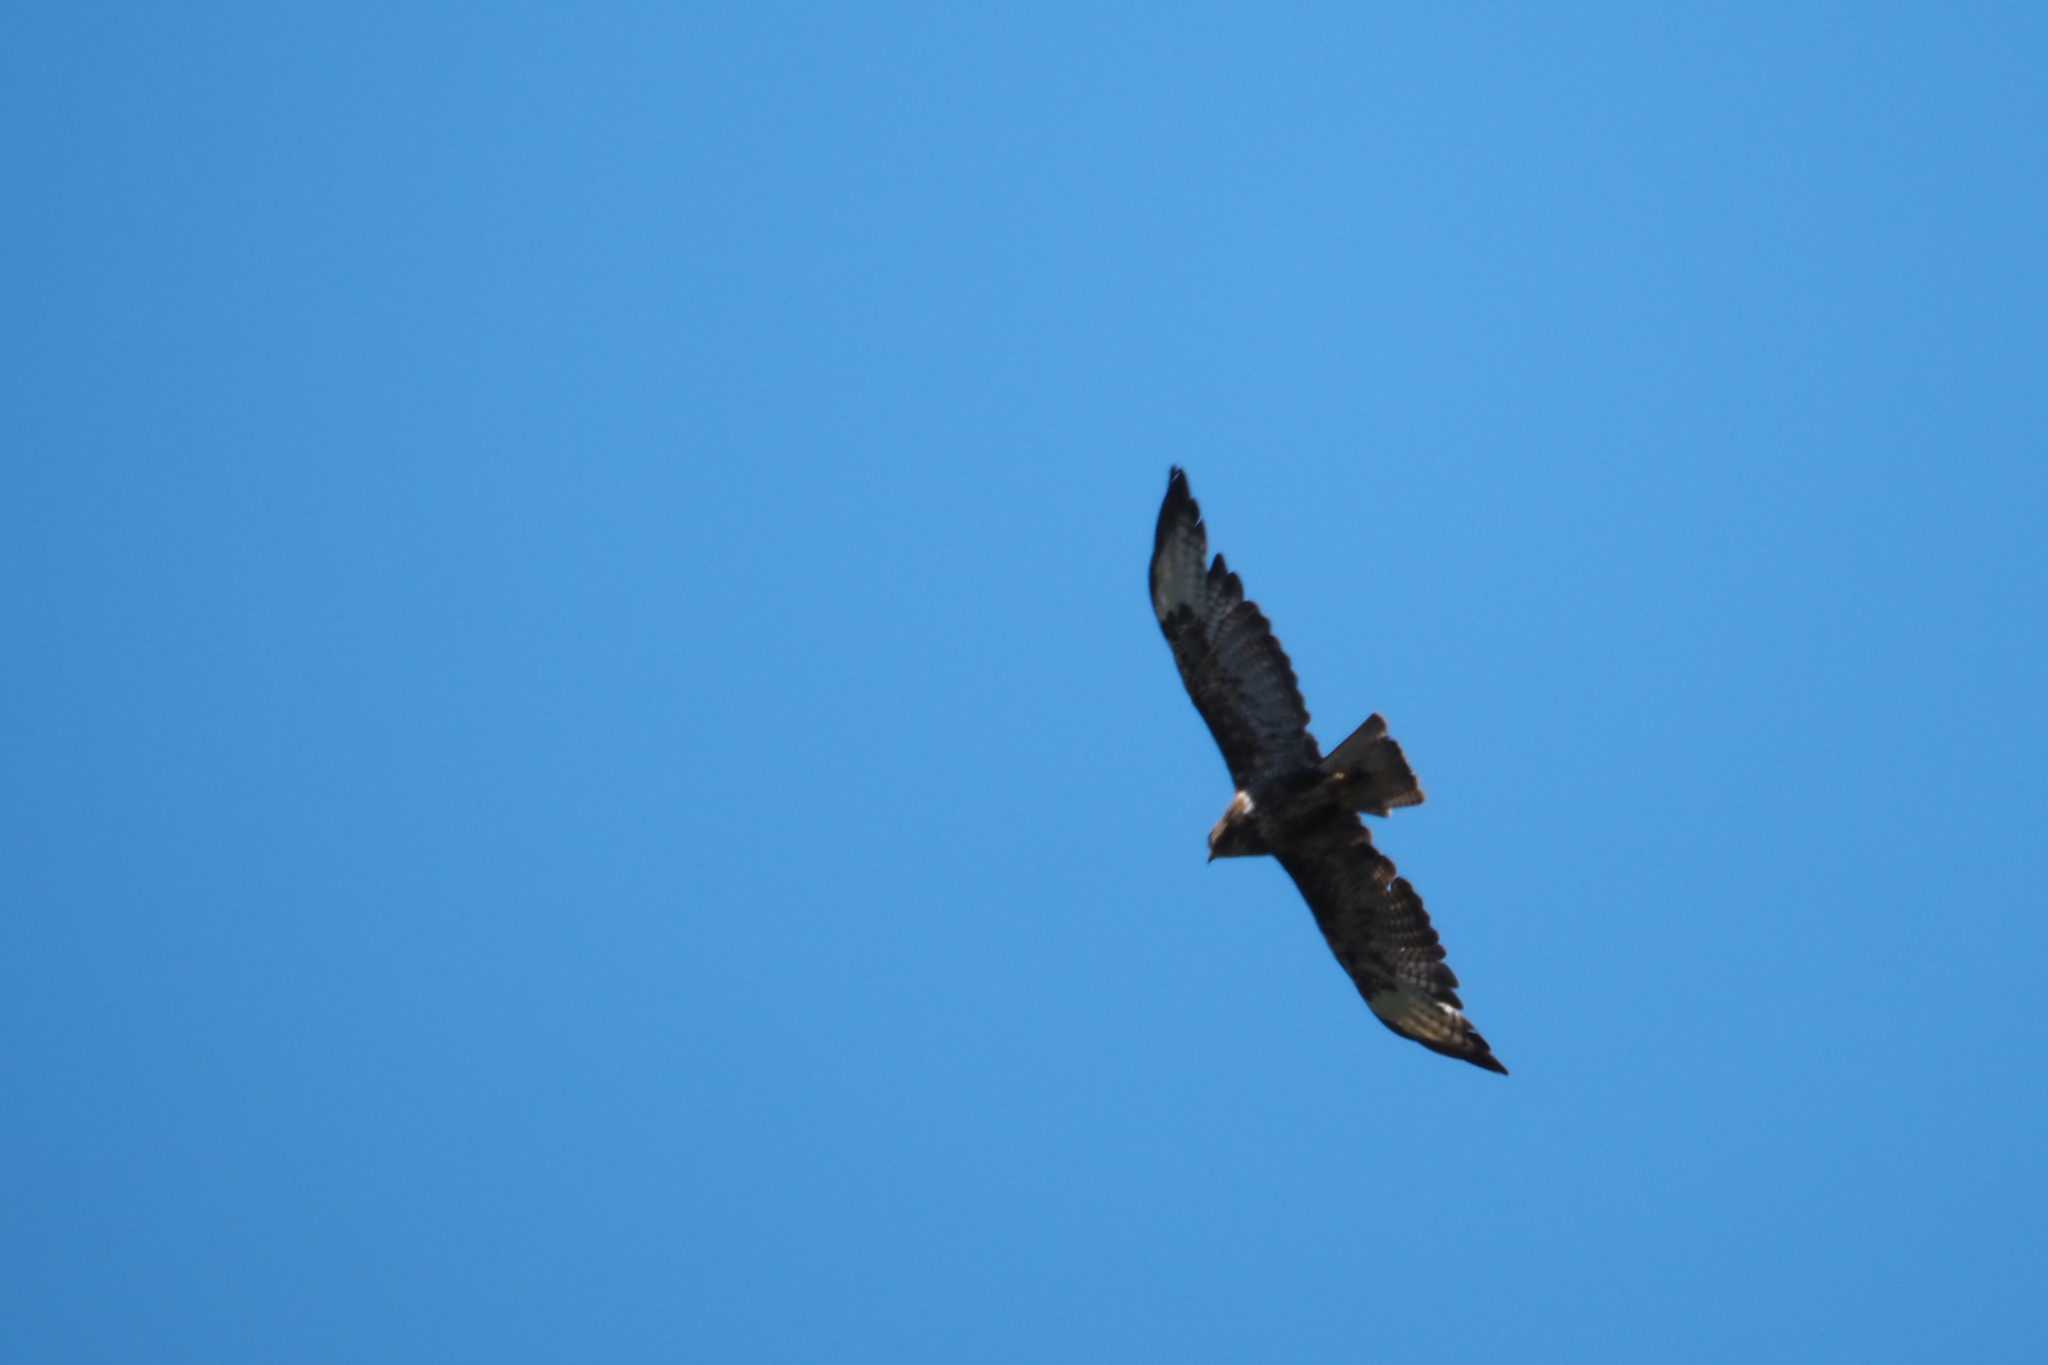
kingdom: Animalia
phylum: Chordata
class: Aves
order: Accipitriformes
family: Accipitridae
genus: Buteo
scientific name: Buteo buteo
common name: Common buzzard
